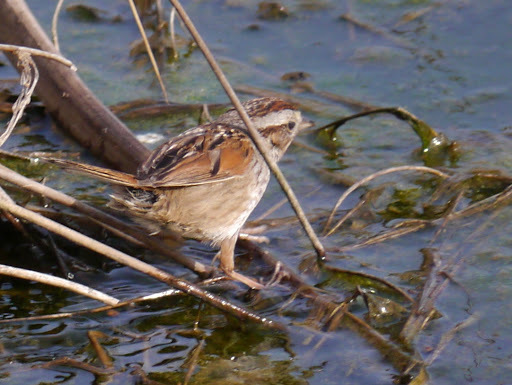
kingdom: Animalia
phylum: Chordata
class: Aves
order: Passeriformes
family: Passerellidae
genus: Melospiza
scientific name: Melospiza georgiana
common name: Swamp sparrow
